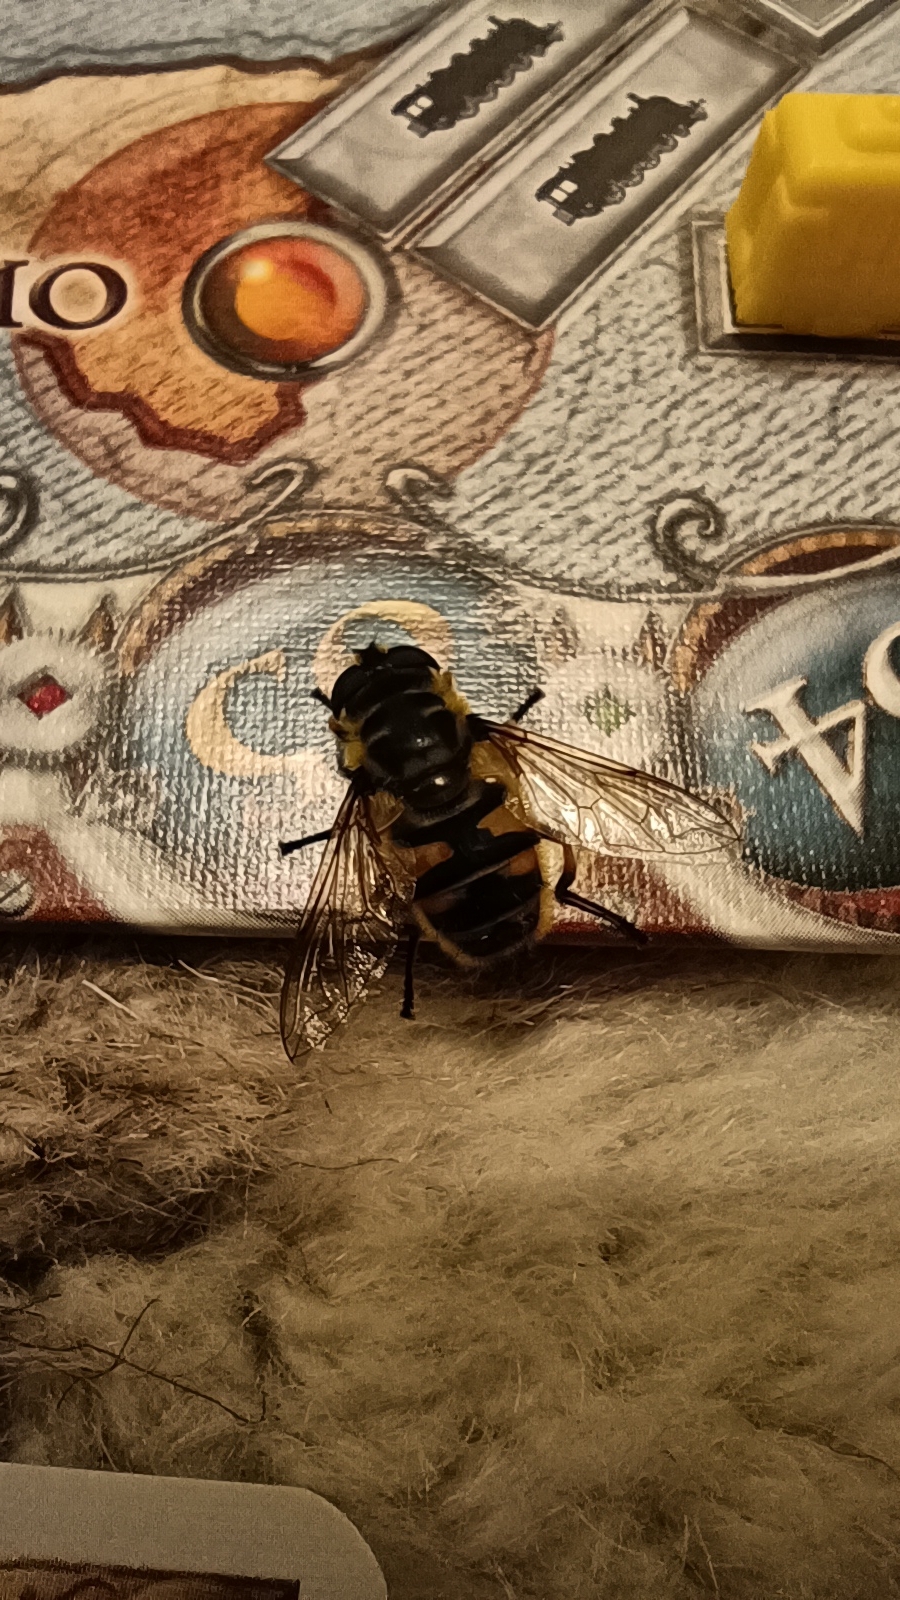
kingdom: Animalia
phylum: Arthropoda
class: Insecta
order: Diptera
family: Syrphidae
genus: Myathropa
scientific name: Myathropa florea
